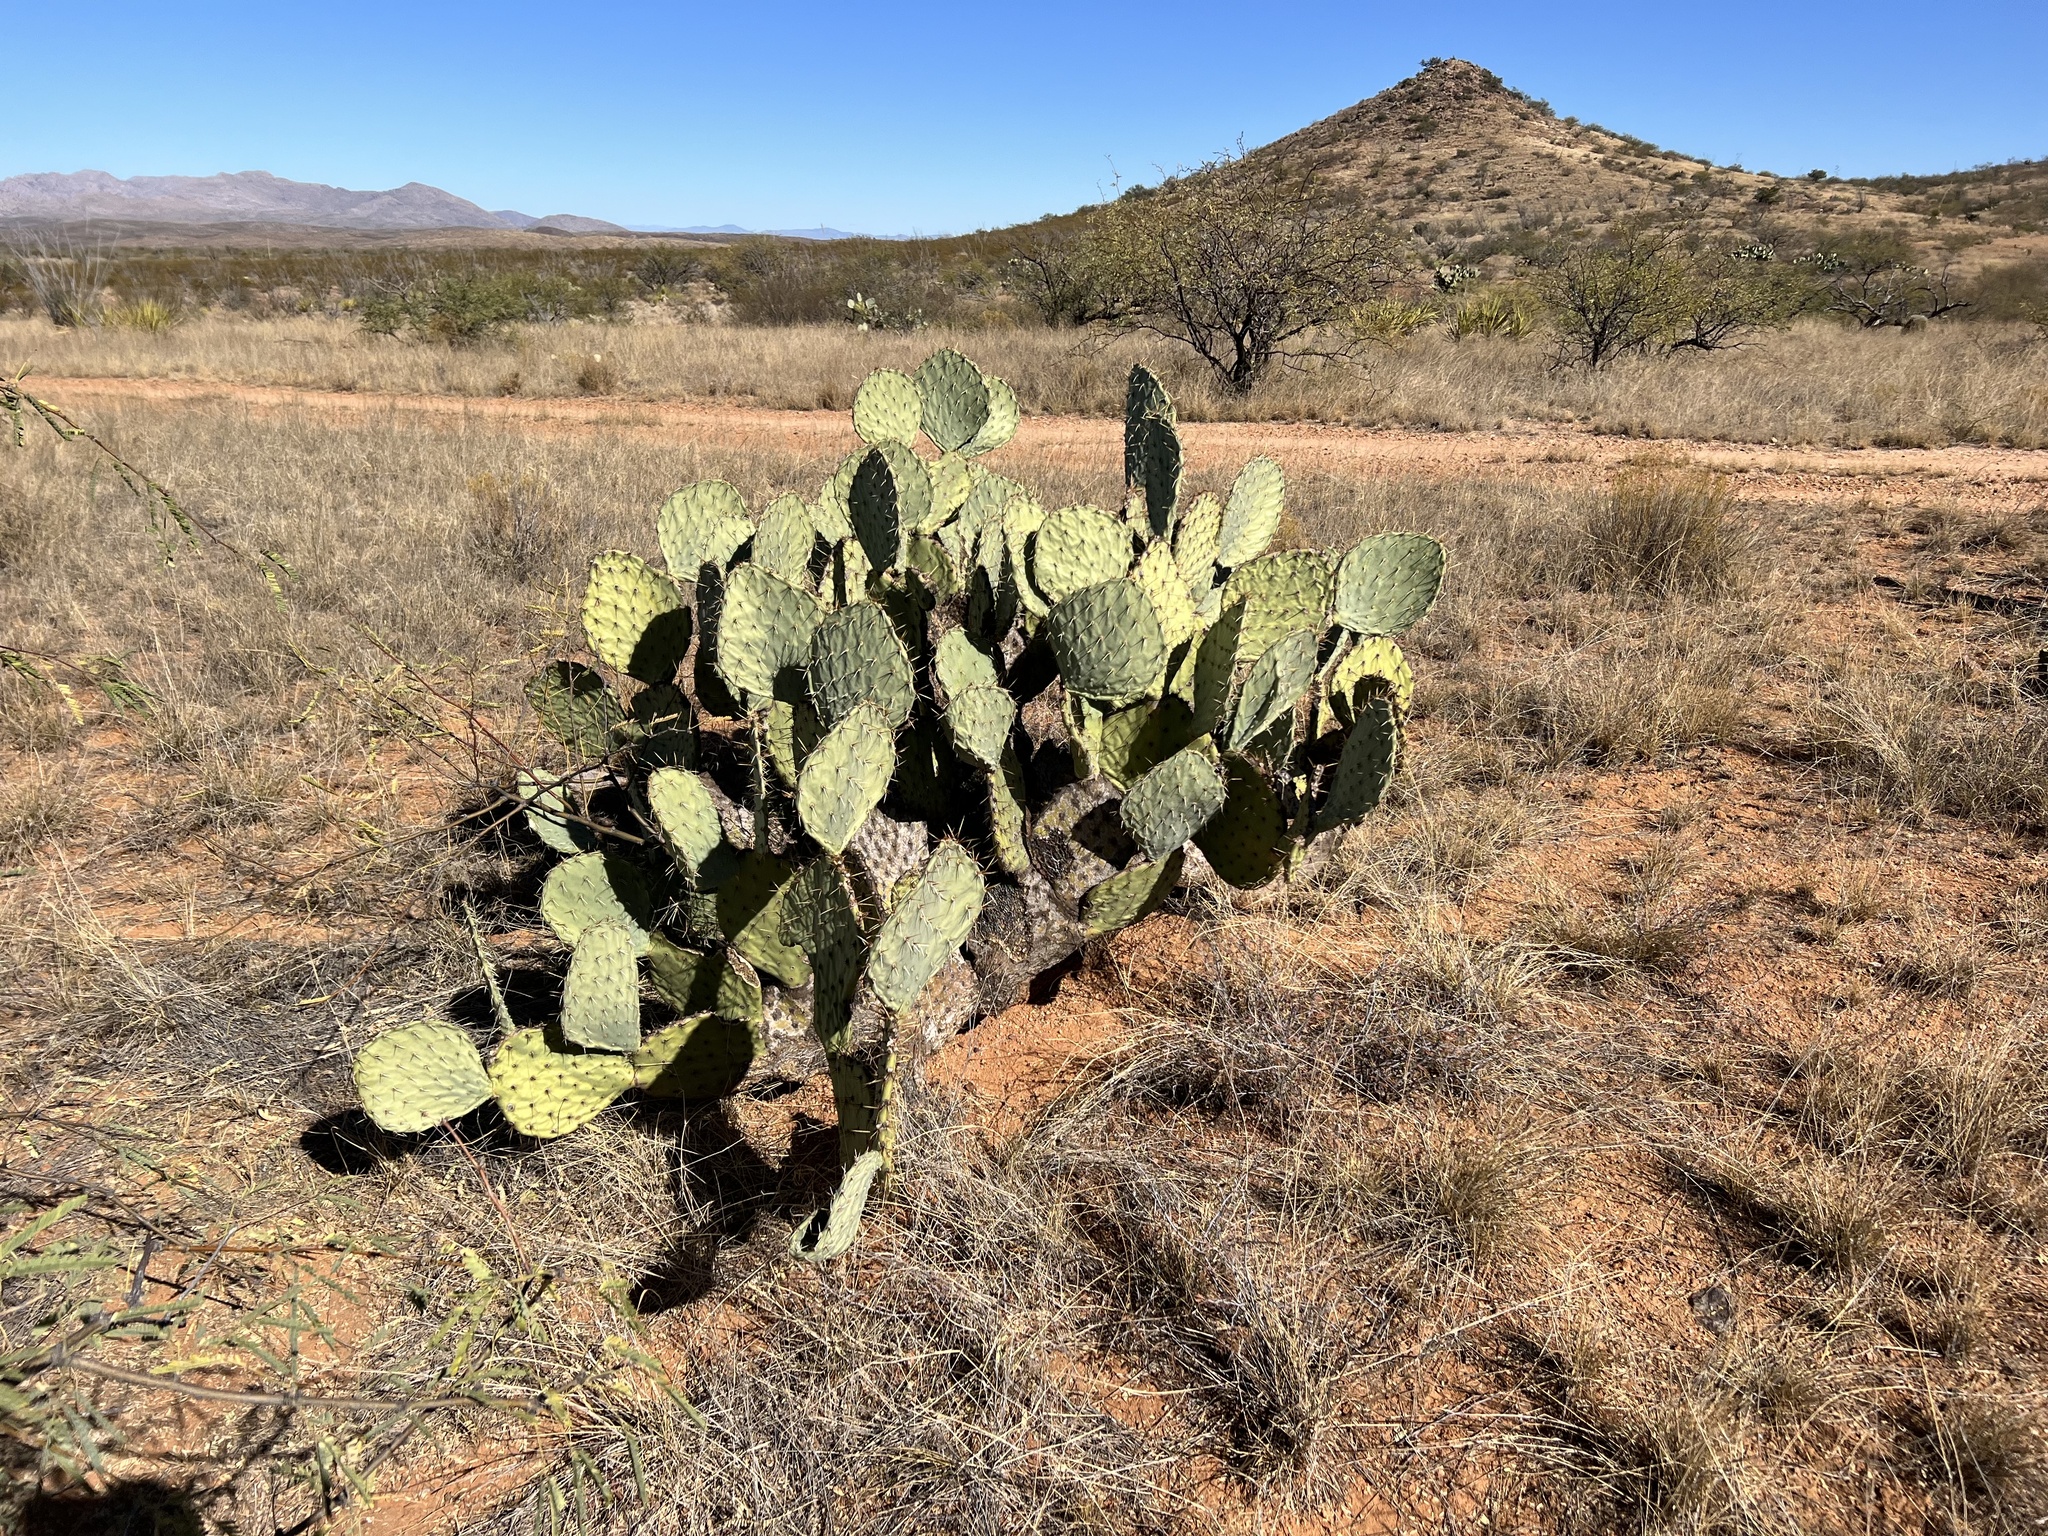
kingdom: Plantae
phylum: Tracheophyta
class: Magnoliopsida
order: Caryophyllales
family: Cactaceae
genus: Opuntia
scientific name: Opuntia engelmannii
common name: Cactus-apple
